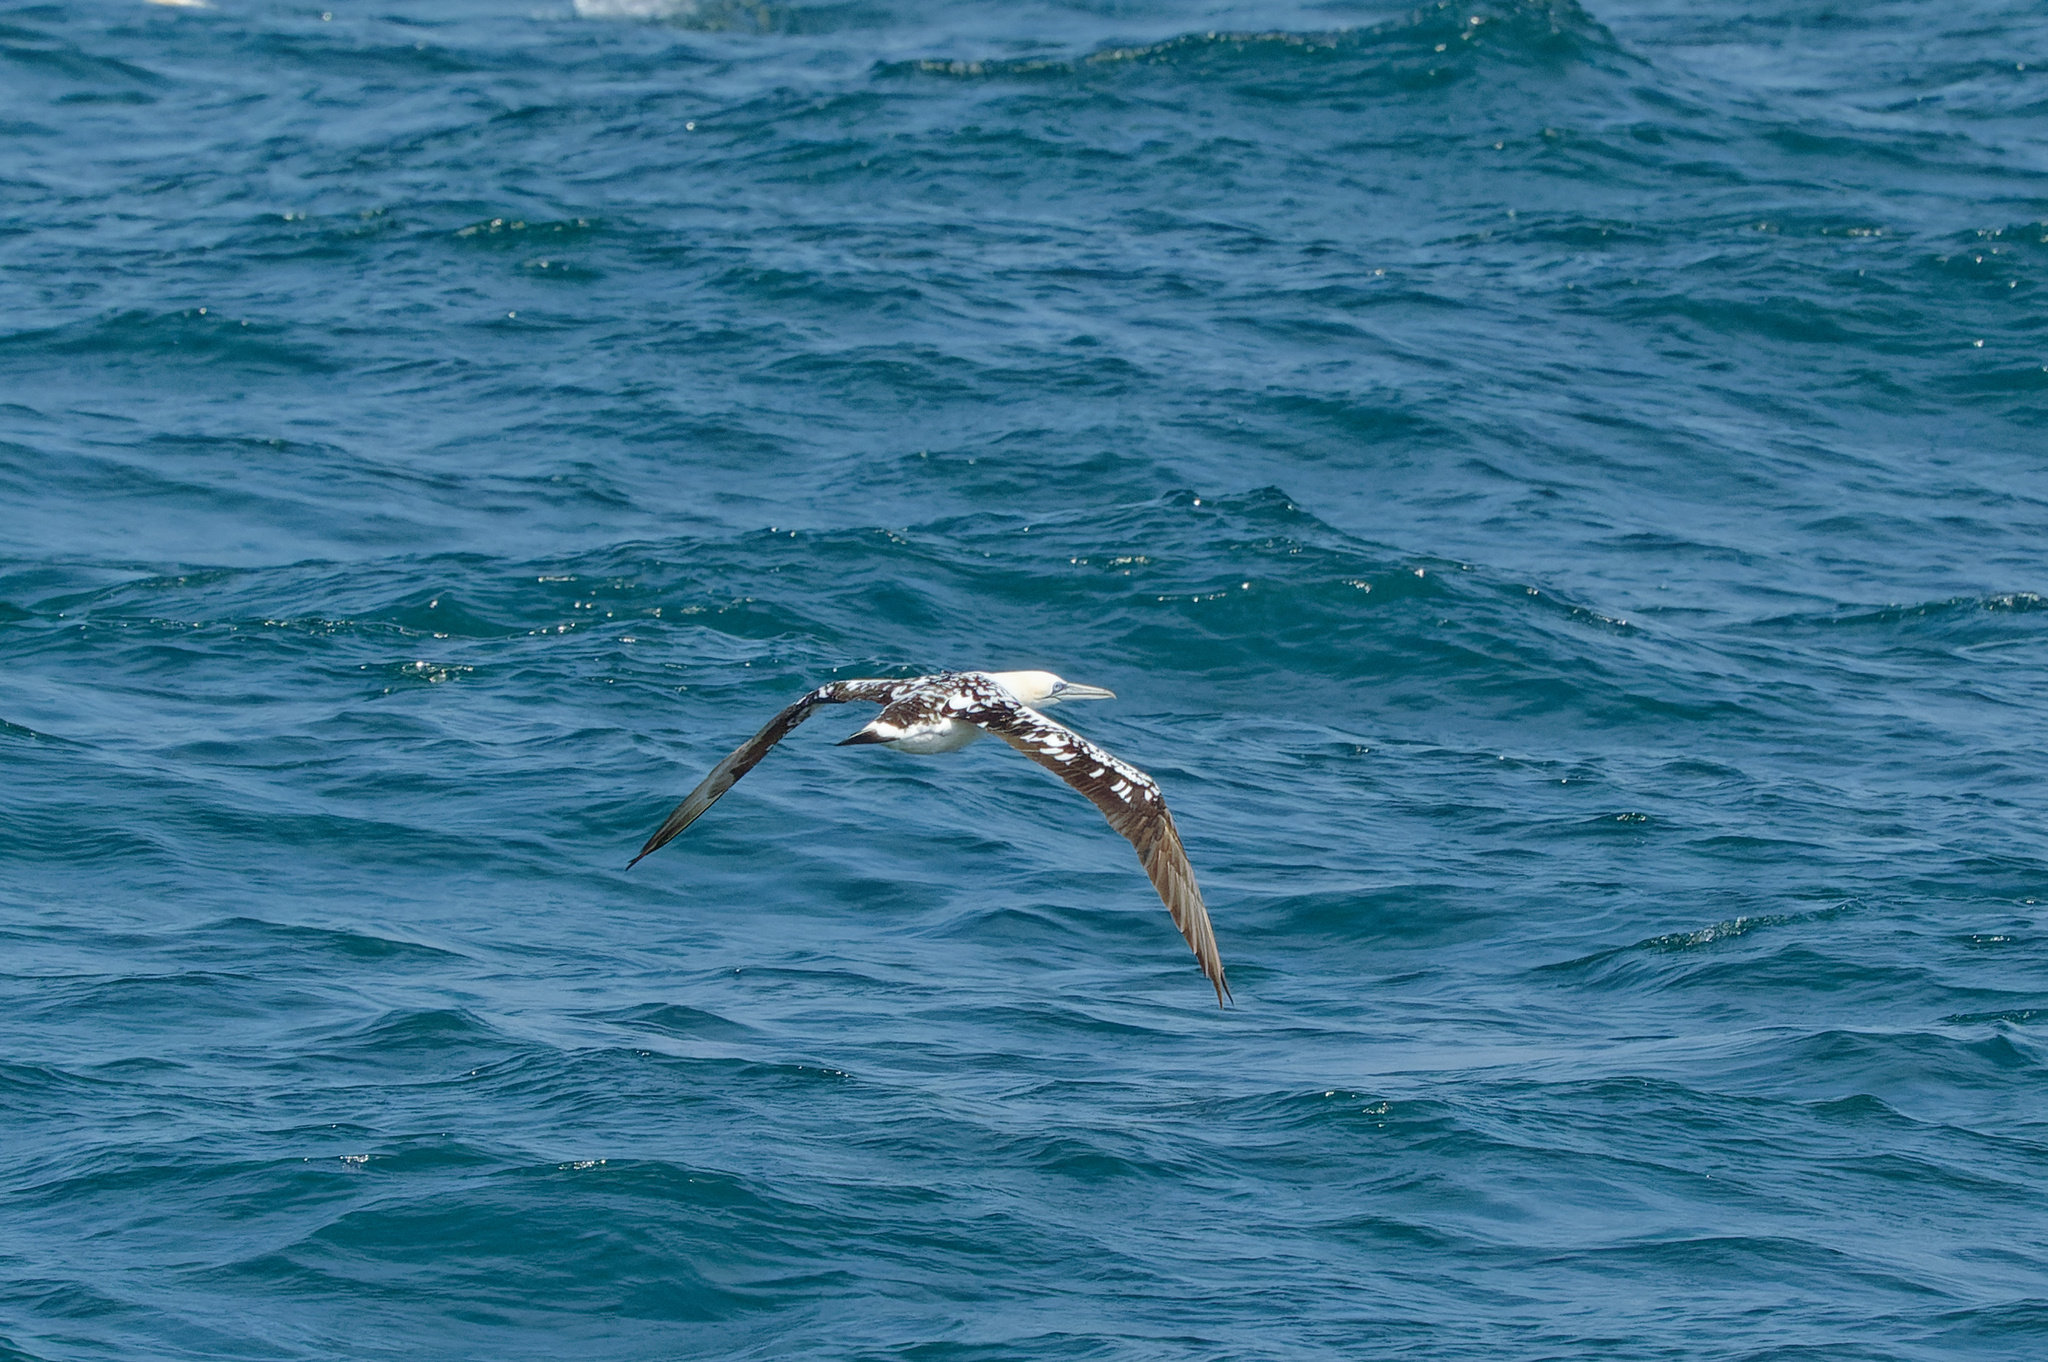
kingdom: Animalia
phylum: Chordata
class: Aves
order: Suliformes
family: Sulidae
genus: Morus
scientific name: Morus bassanus
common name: Northern gannet
